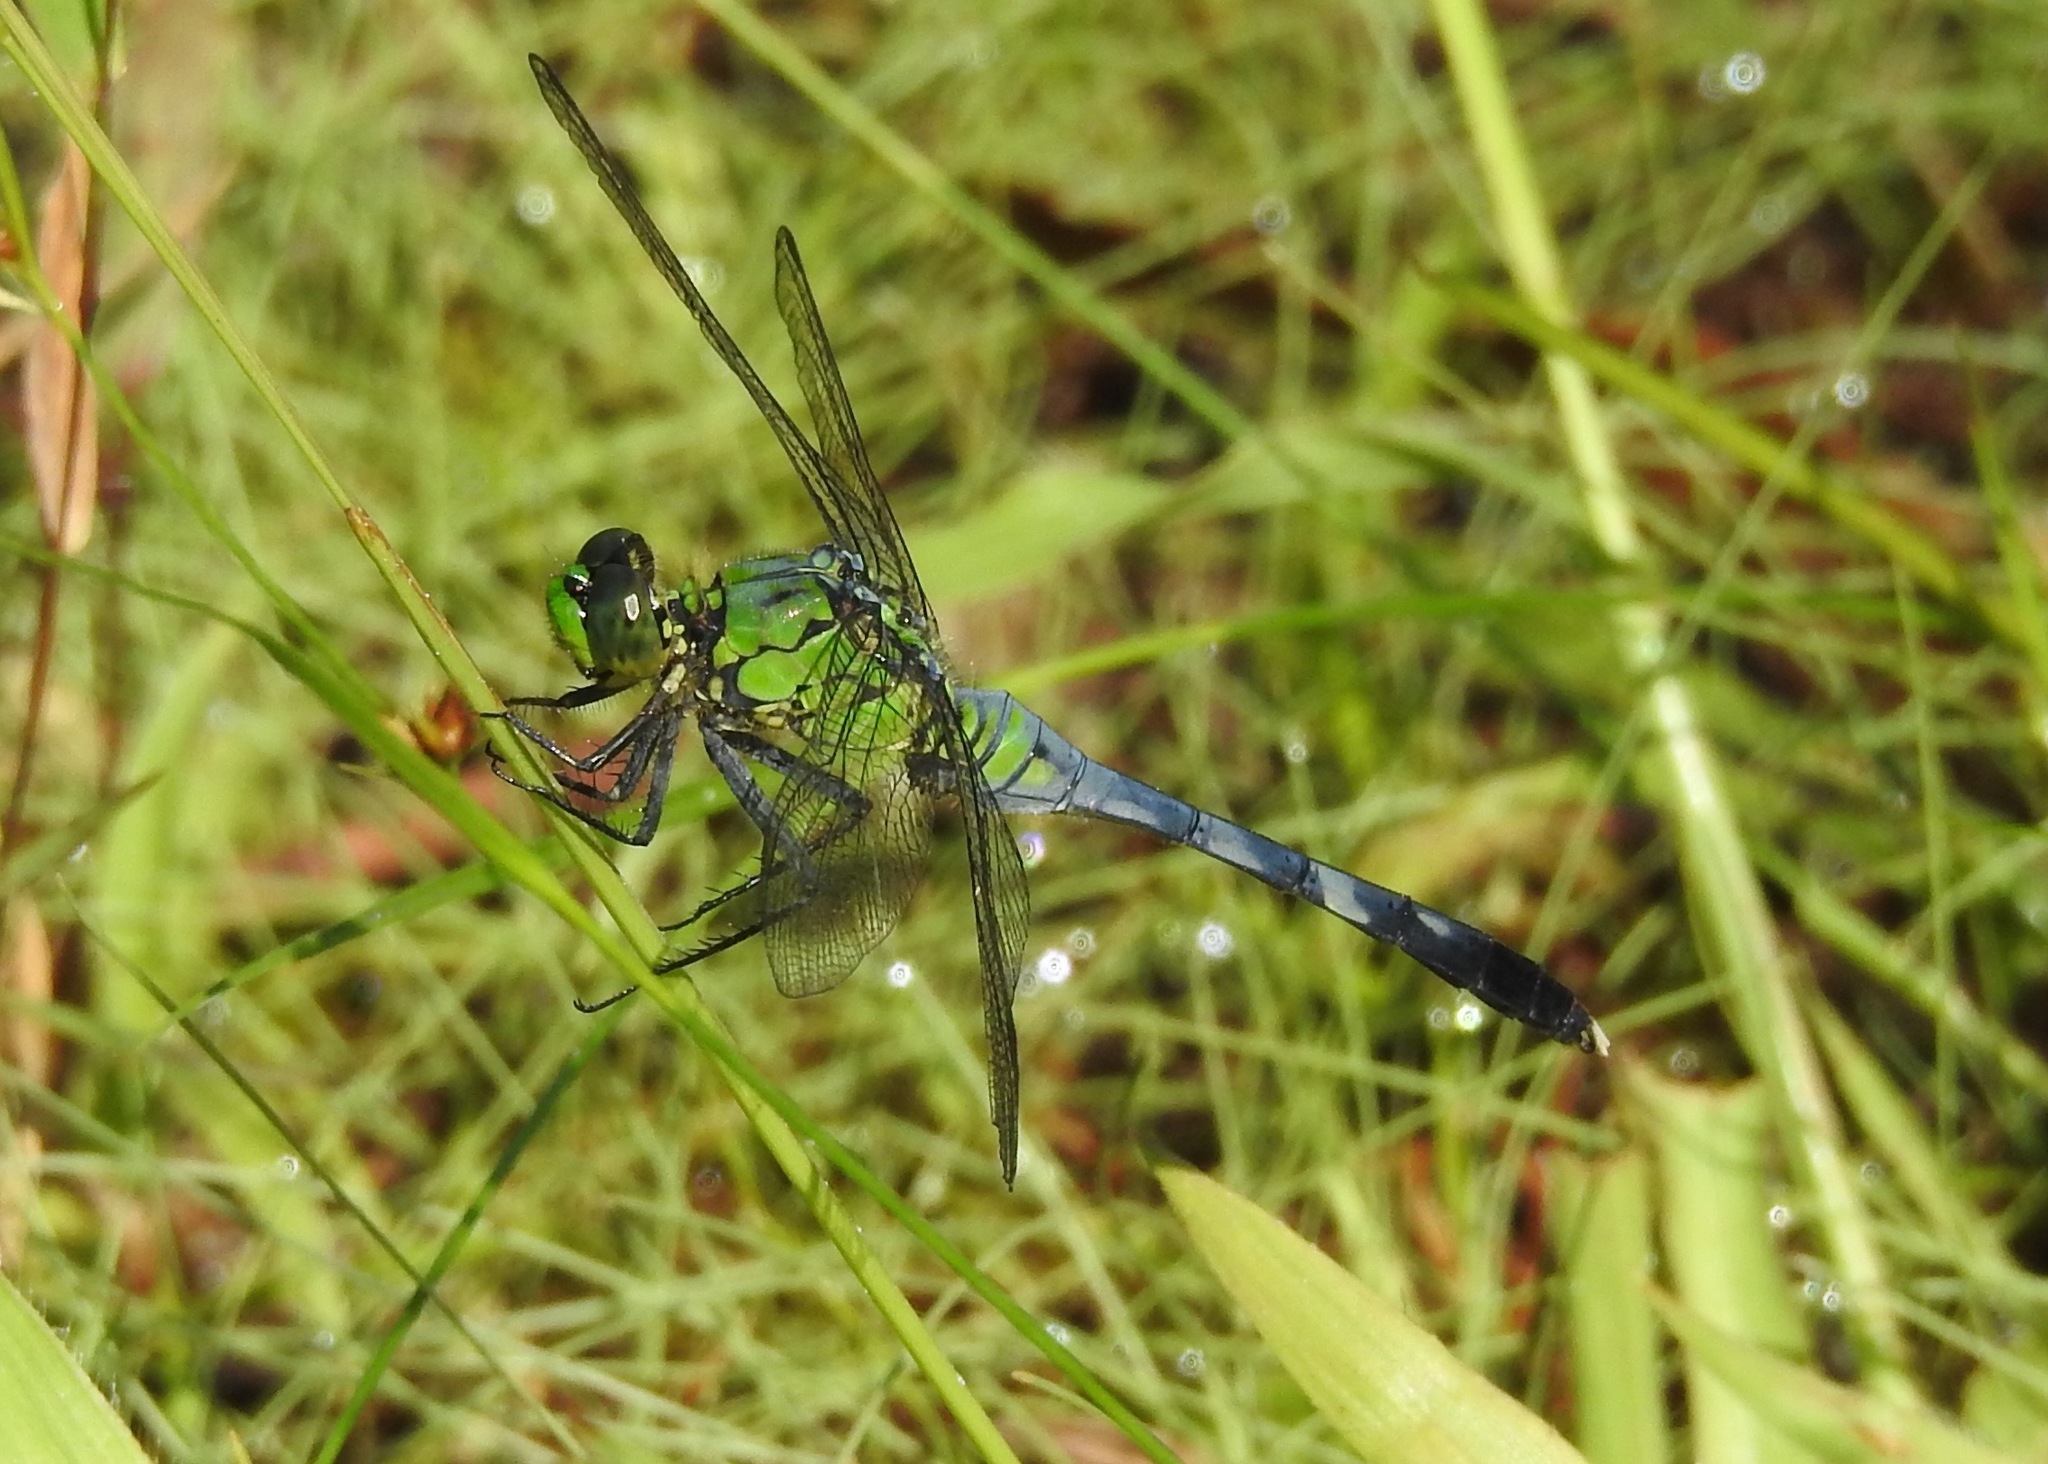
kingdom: Animalia
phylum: Arthropoda
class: Insecta
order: Odonata
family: Libellulidae
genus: Erythemis
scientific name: Erythemis simplicicollis
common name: Eastern pondhawk
